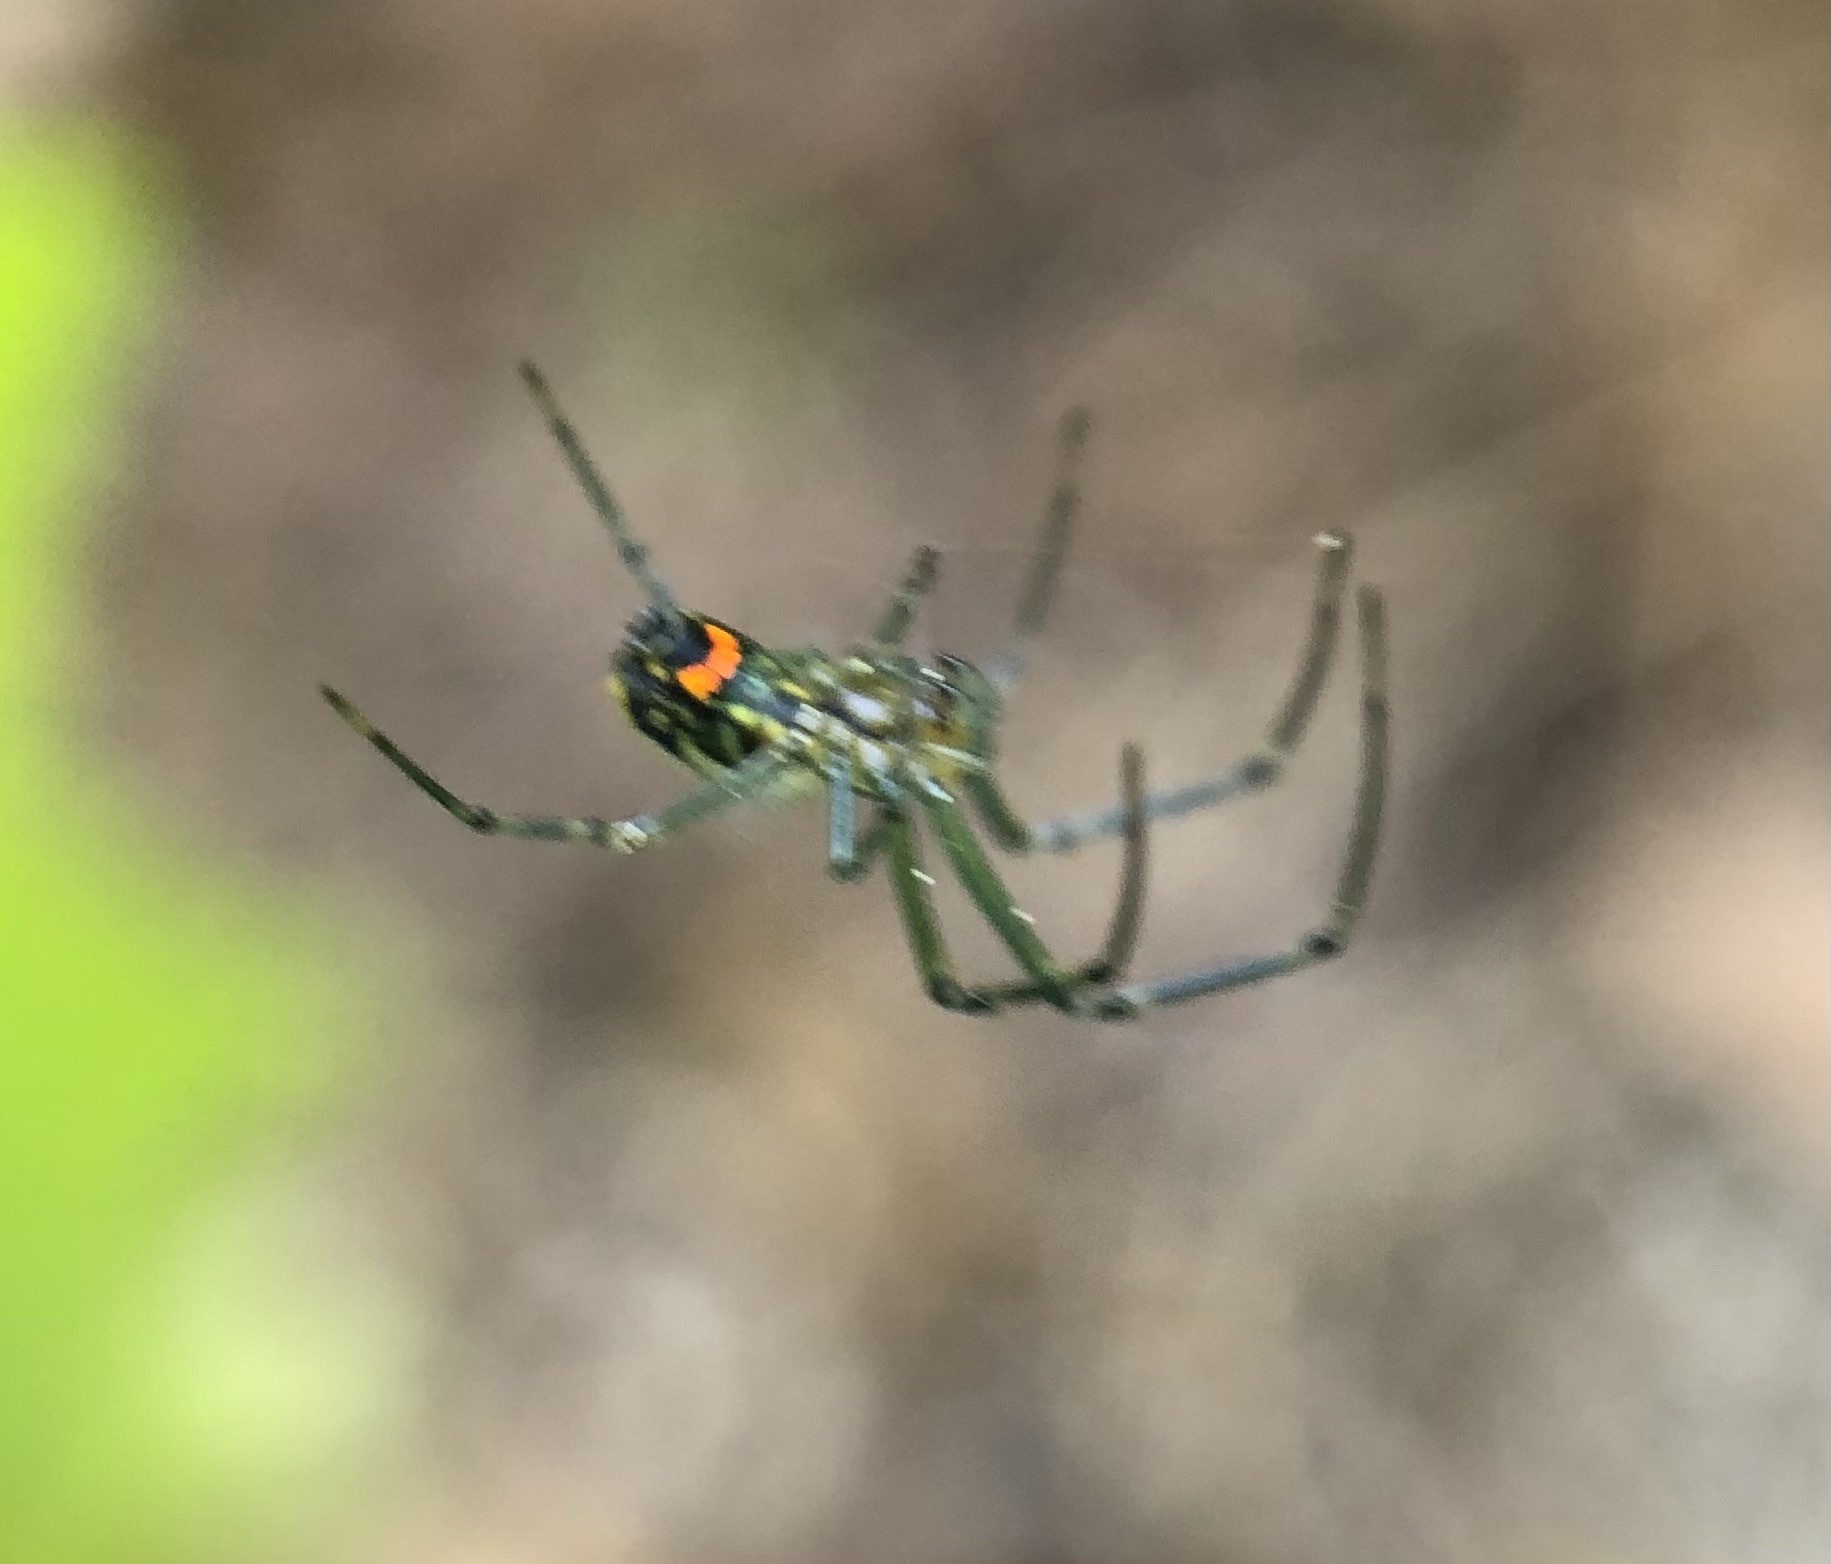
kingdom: Animalia
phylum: Arthropoda
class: Arachnida
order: Araneae
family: Tetragnathidae
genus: Leucauge
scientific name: Leucauge venusta
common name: Longjawed orb weavers
